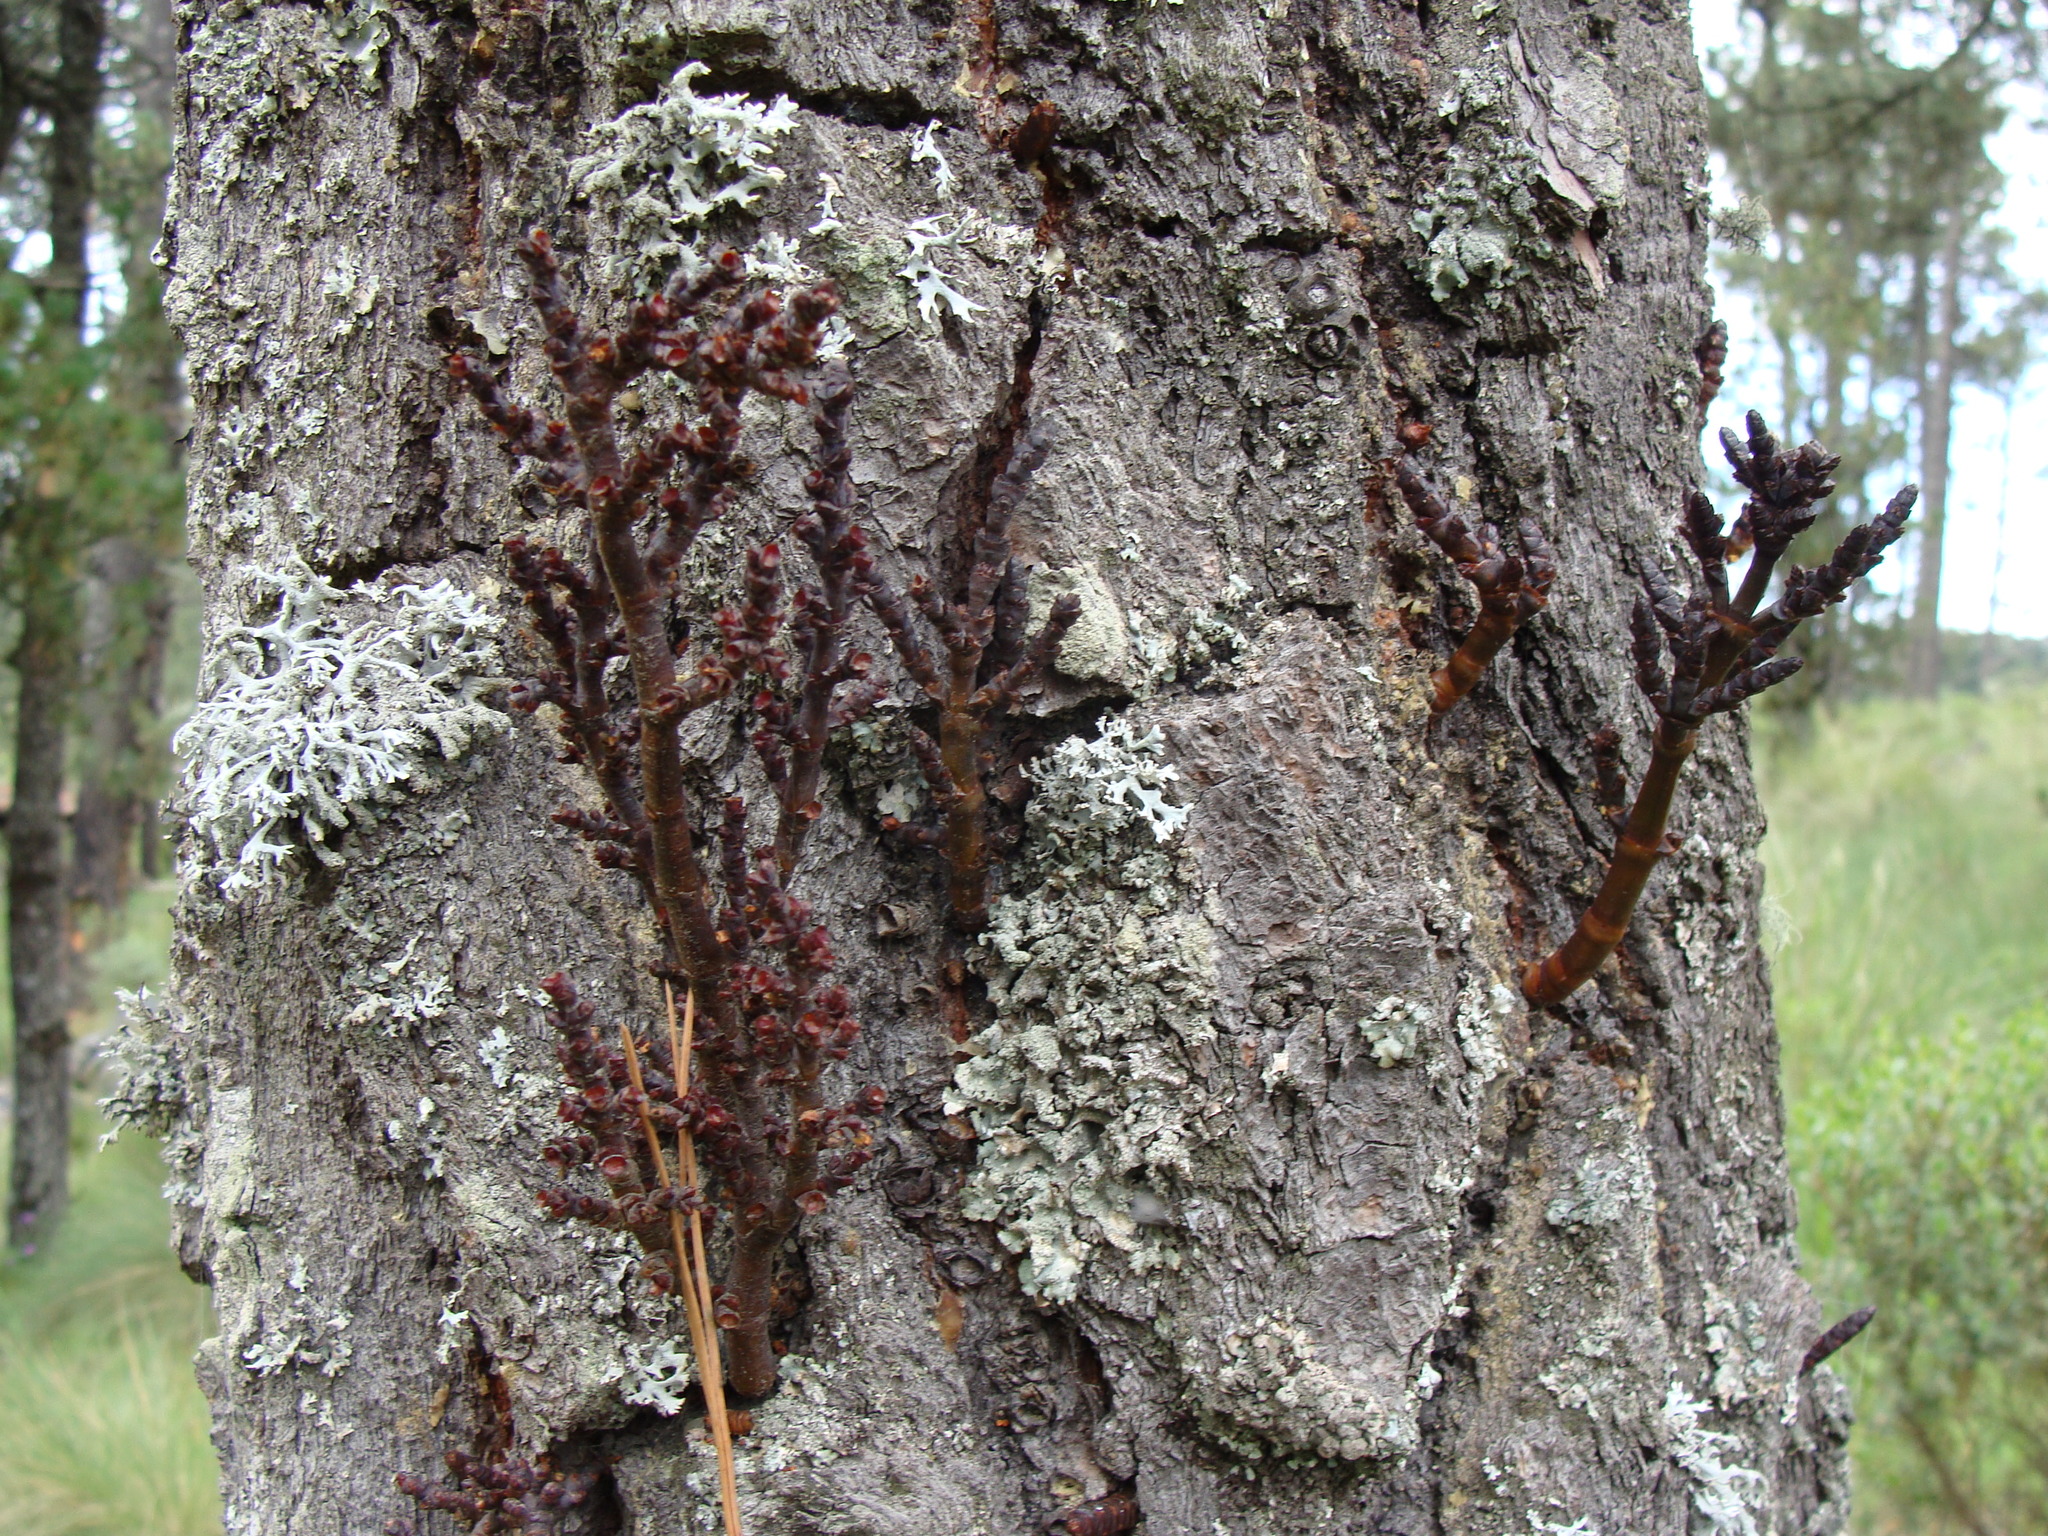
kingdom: Plantae
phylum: Tracheophyta
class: Magnoliopsida
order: Santalales
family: Viscaceae
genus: Arceuthobium
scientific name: Arceuthobium vaginatum
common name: Southwestern dwarf-mistletoe
